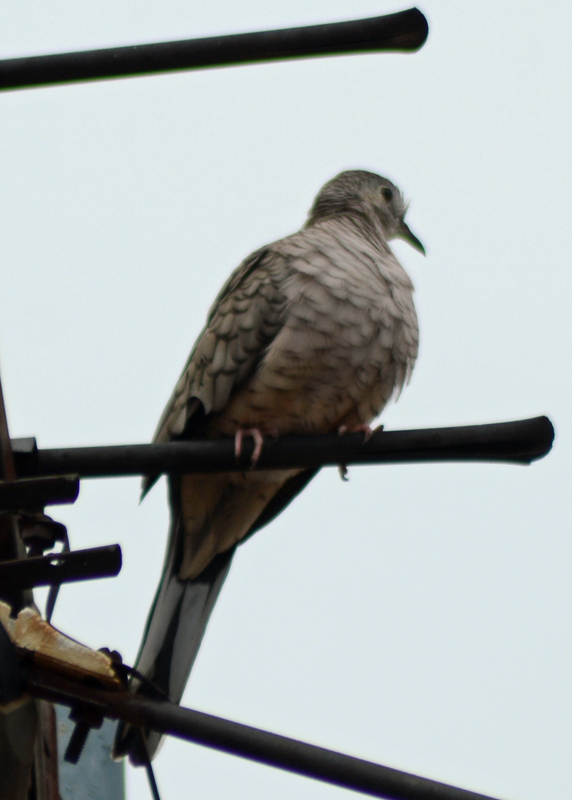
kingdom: Animalia
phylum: Chordata
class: Aves
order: Columbiformes
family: Columbidae
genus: Columbina
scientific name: Columbina inca
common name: Inca dove
